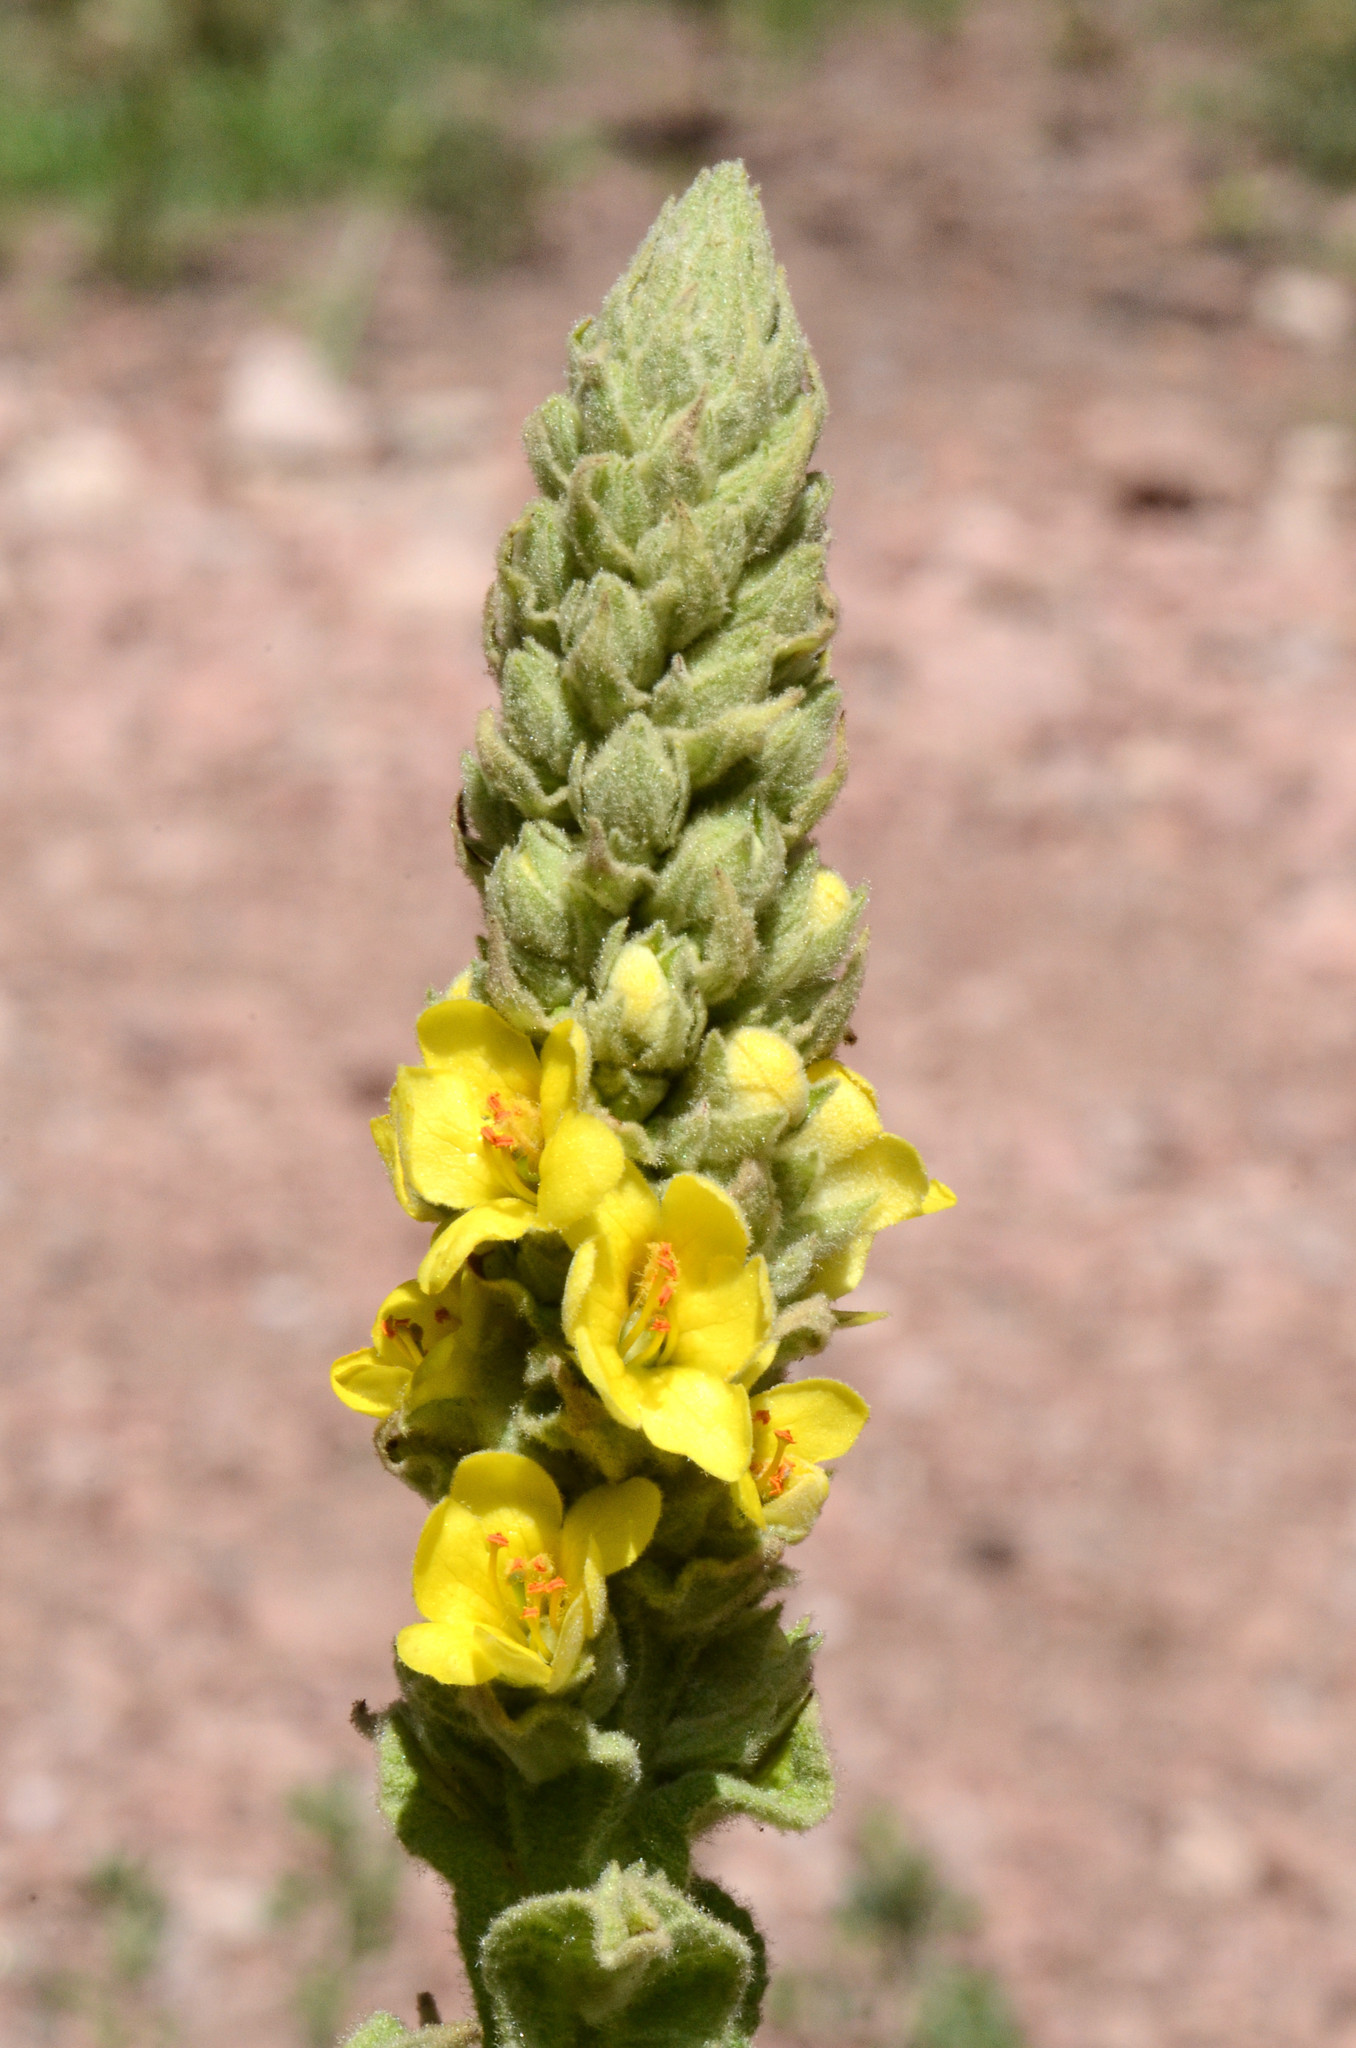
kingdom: Plantae
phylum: Tracheophyta
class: Magnoliopsida
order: Lamiales
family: Scrophulariaceae
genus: Verbascum
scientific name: Verbascum thapsus
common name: Common mullein
